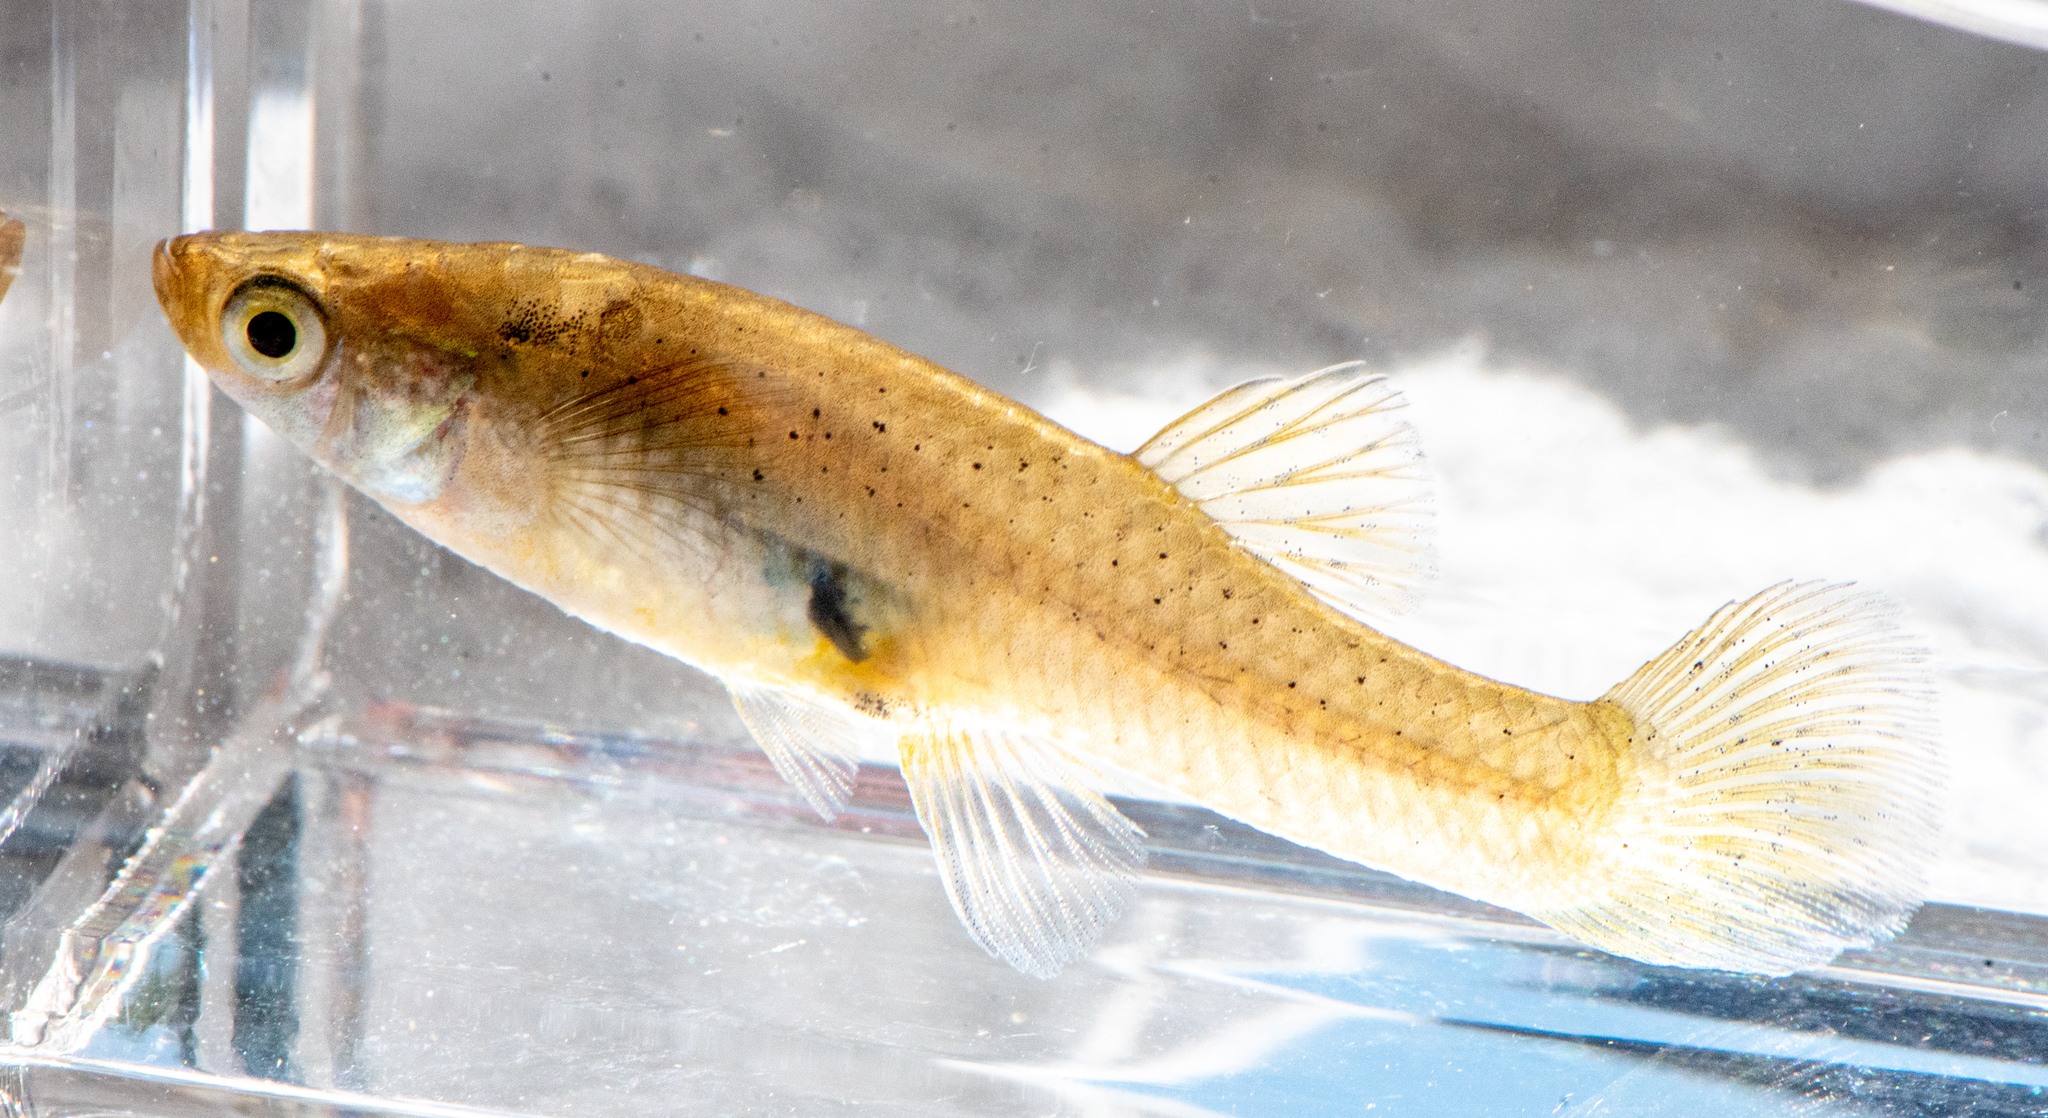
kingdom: Animalia
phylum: Chordata
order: Cyprinodontiformes
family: Poeciliidae
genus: Gambusia
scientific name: Gambusia affinis
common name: Mosquitofish
